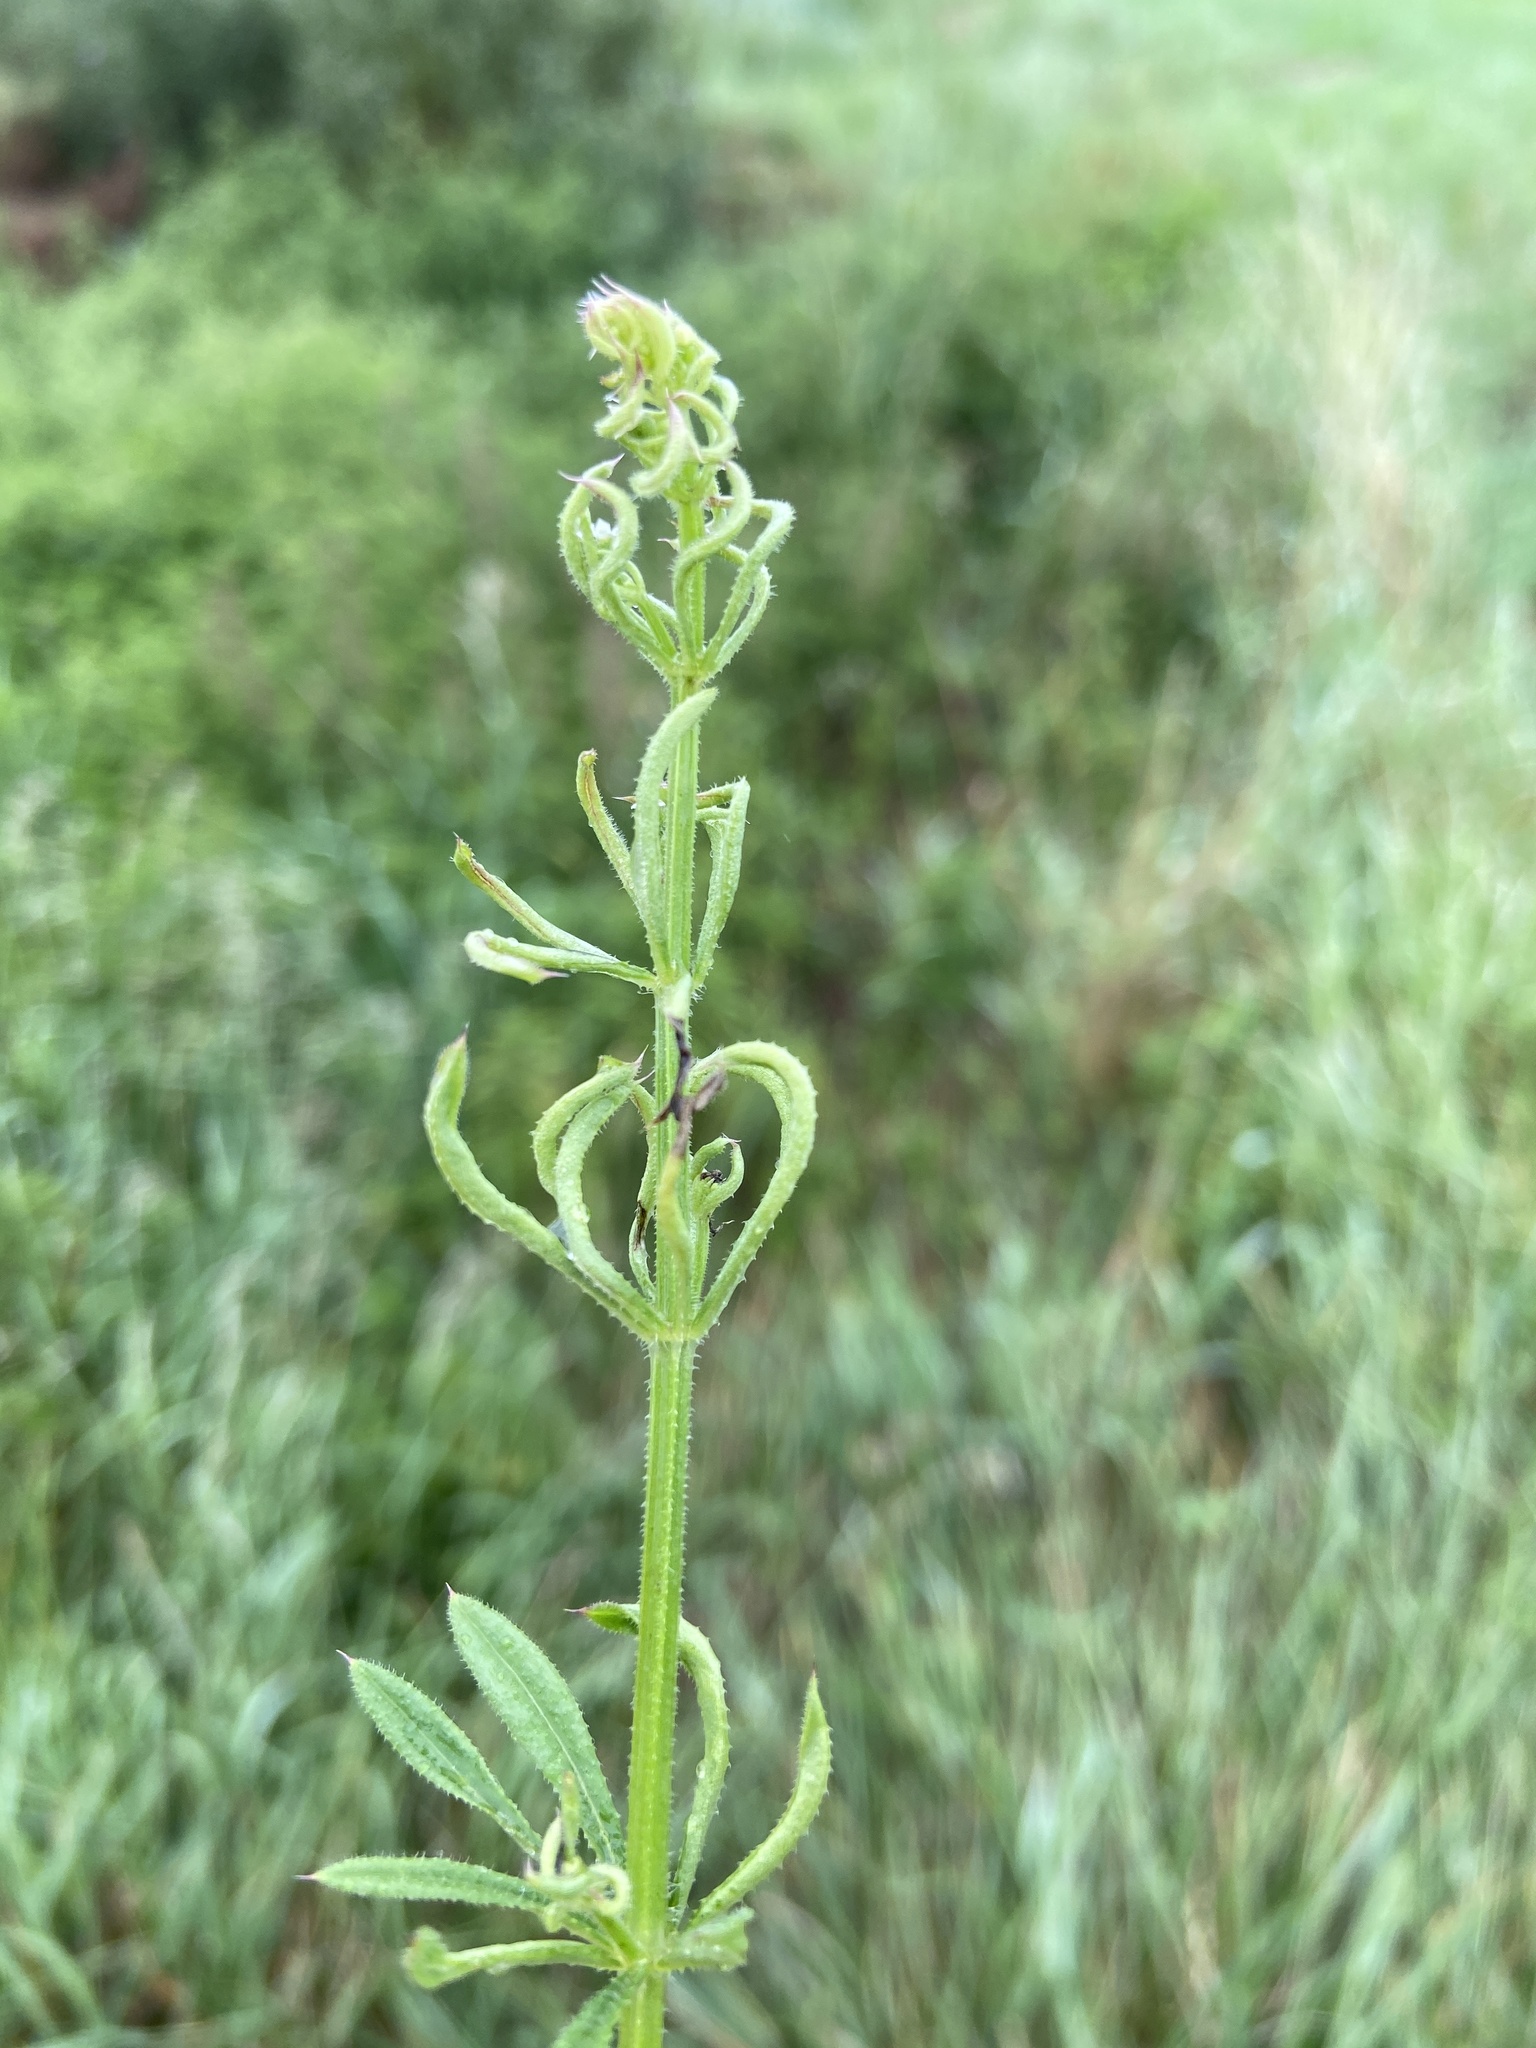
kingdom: Animalia
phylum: Arthropoda
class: Arachnida
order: Trombidiformes
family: Eriophyidae
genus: Cecidophyes
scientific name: Cecidophyes galii
